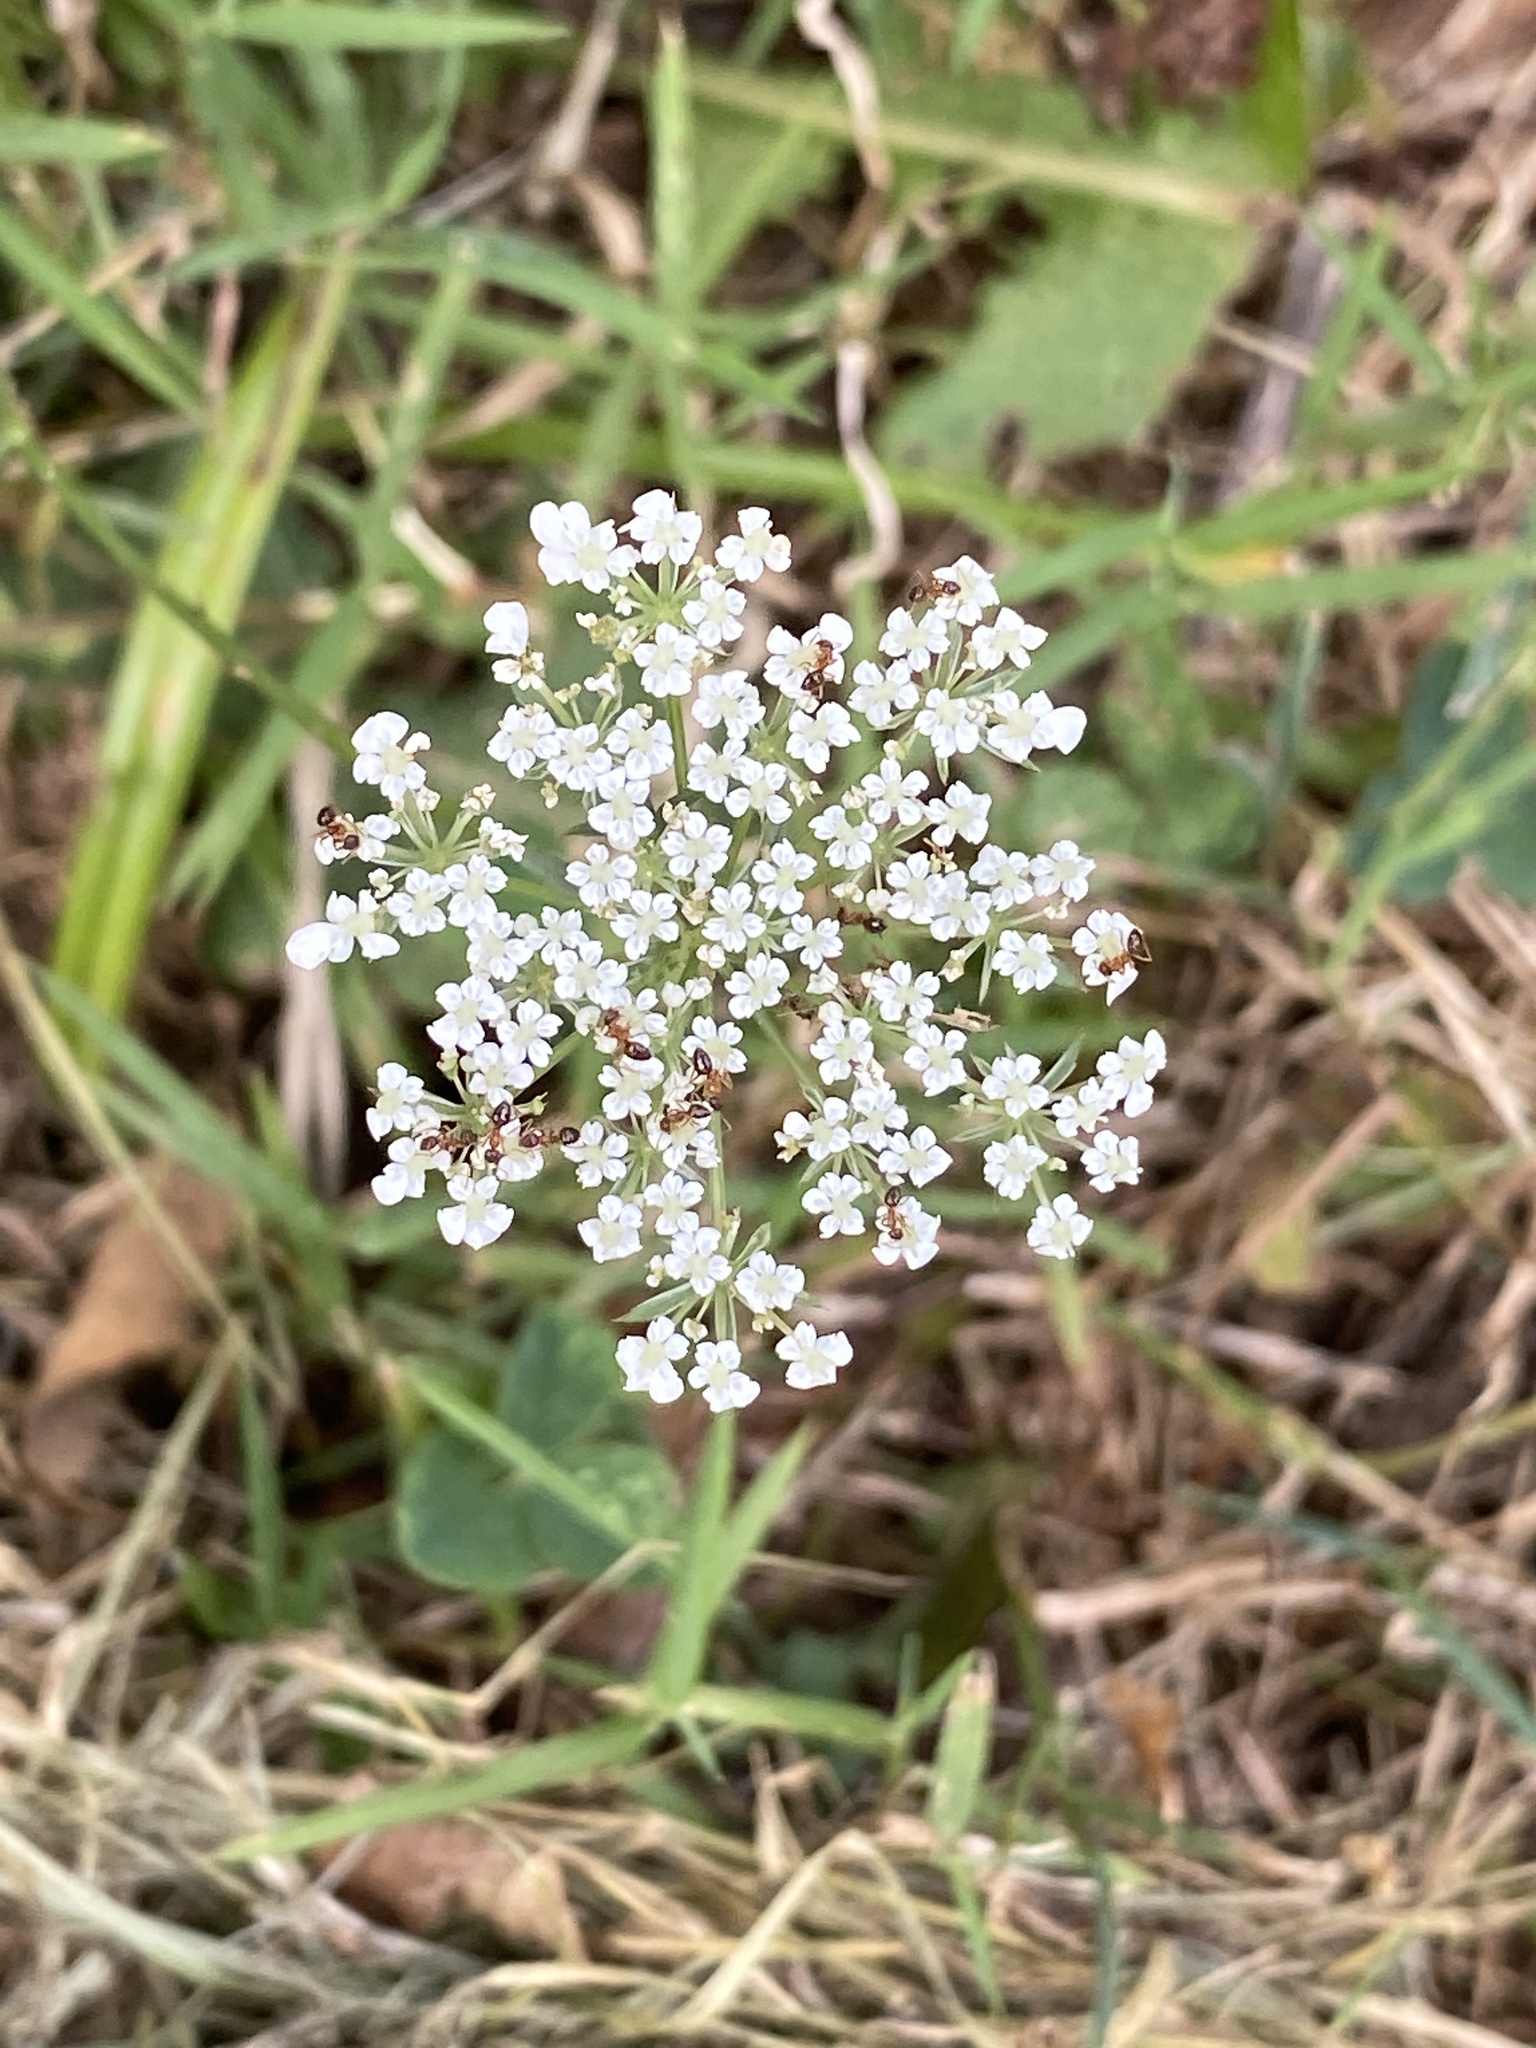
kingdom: Plantae
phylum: Tracheophyta
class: Magnoliopsida
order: Apiales
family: Apiaceae
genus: Daucus
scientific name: Daucus carota
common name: Wild carrot
